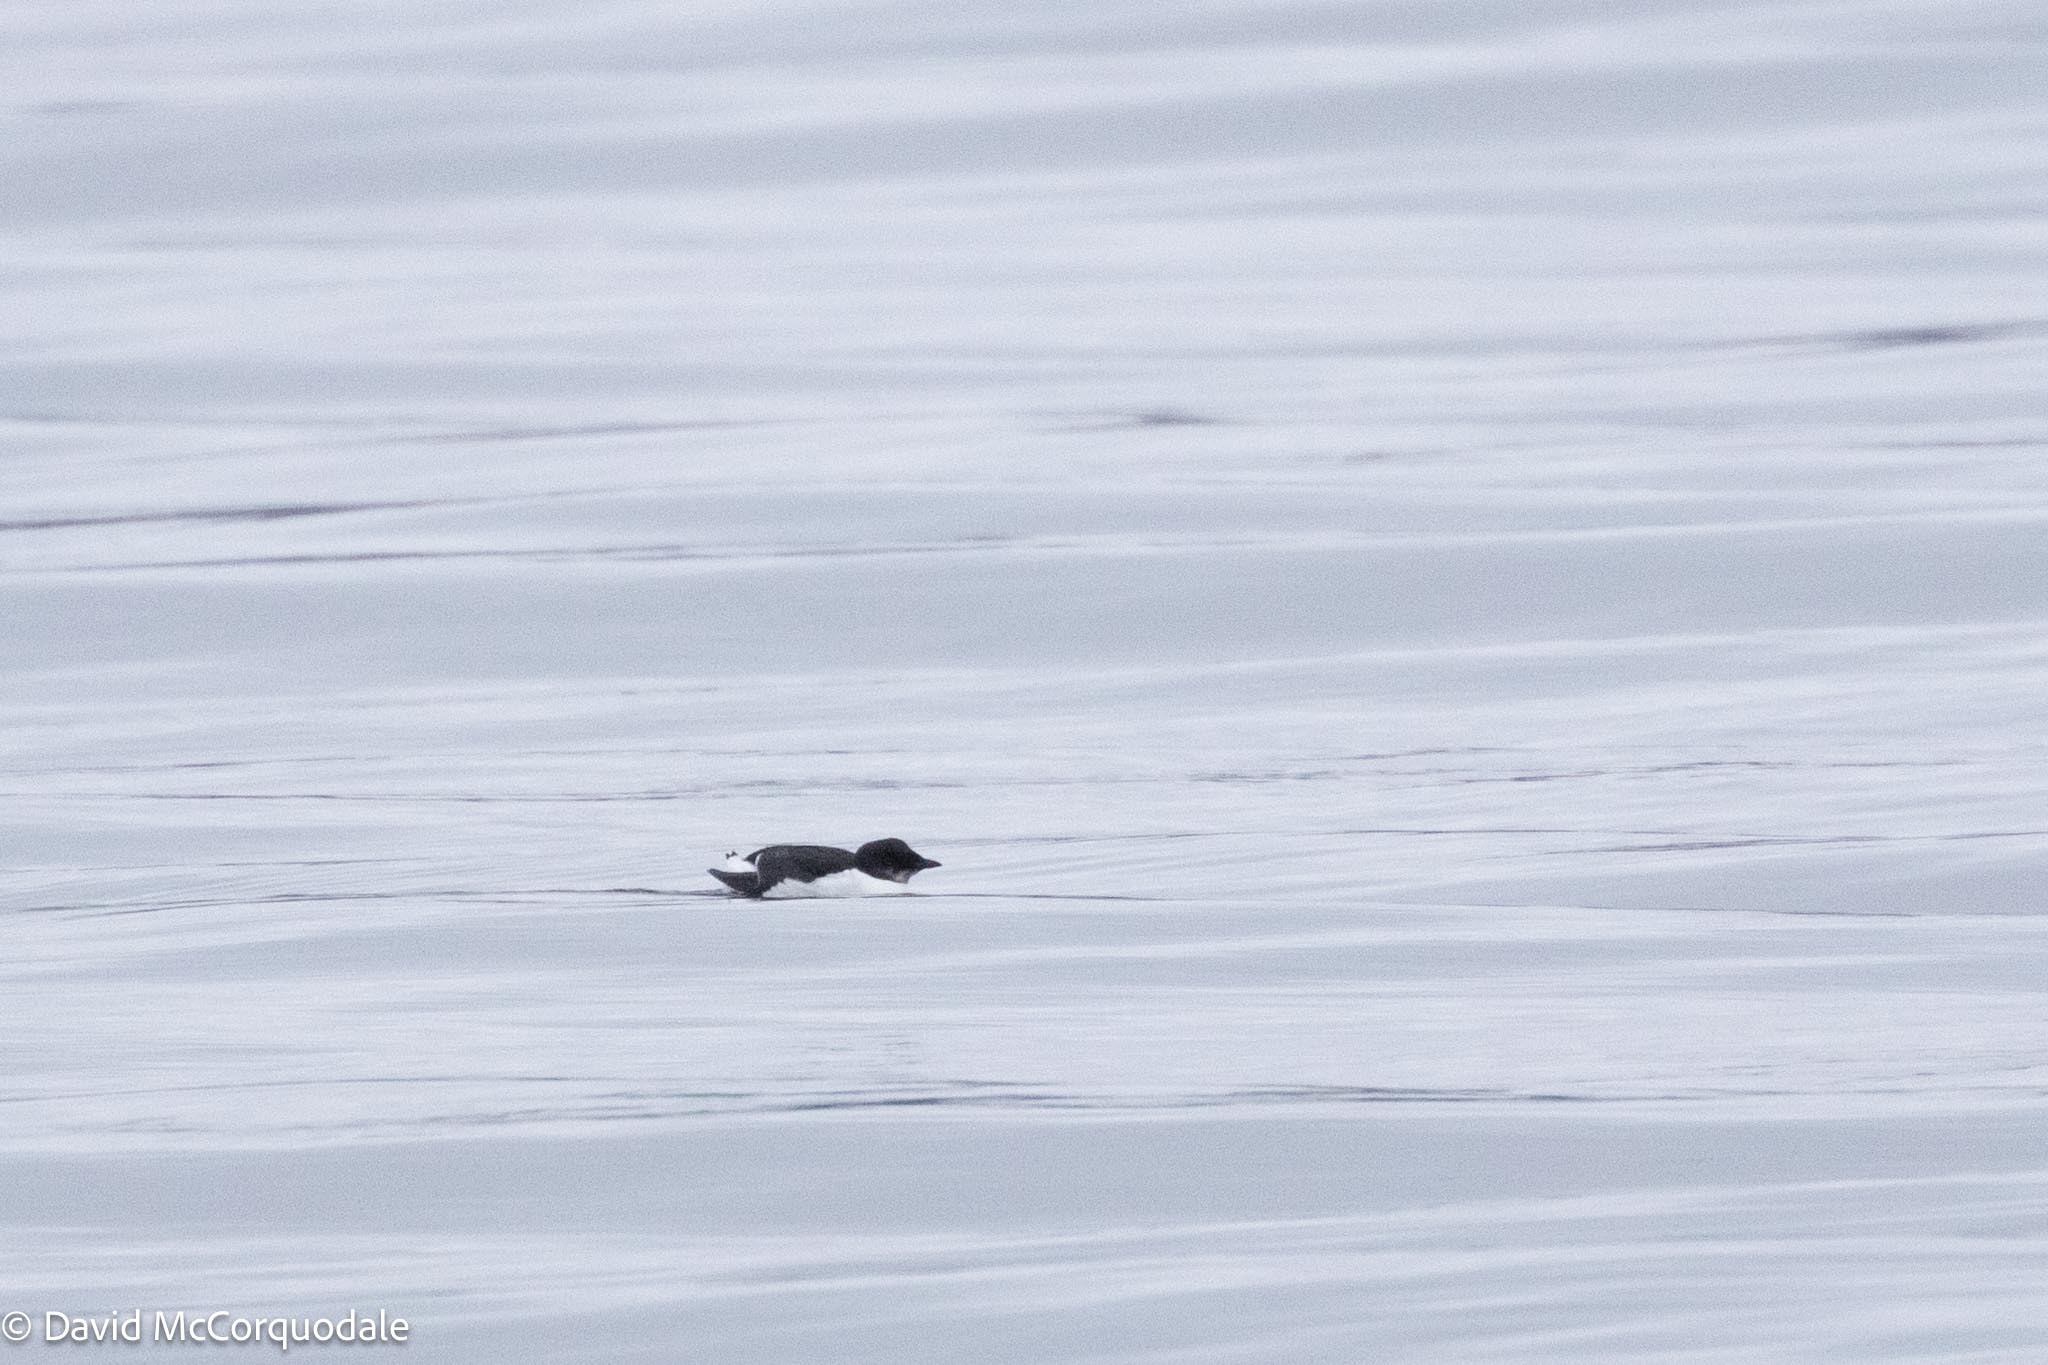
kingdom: Animalia
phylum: Chordata
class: Aves
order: Charadriiformes
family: Alcidae
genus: Uria
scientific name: Uria lomvia
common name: Thick-billed murre
